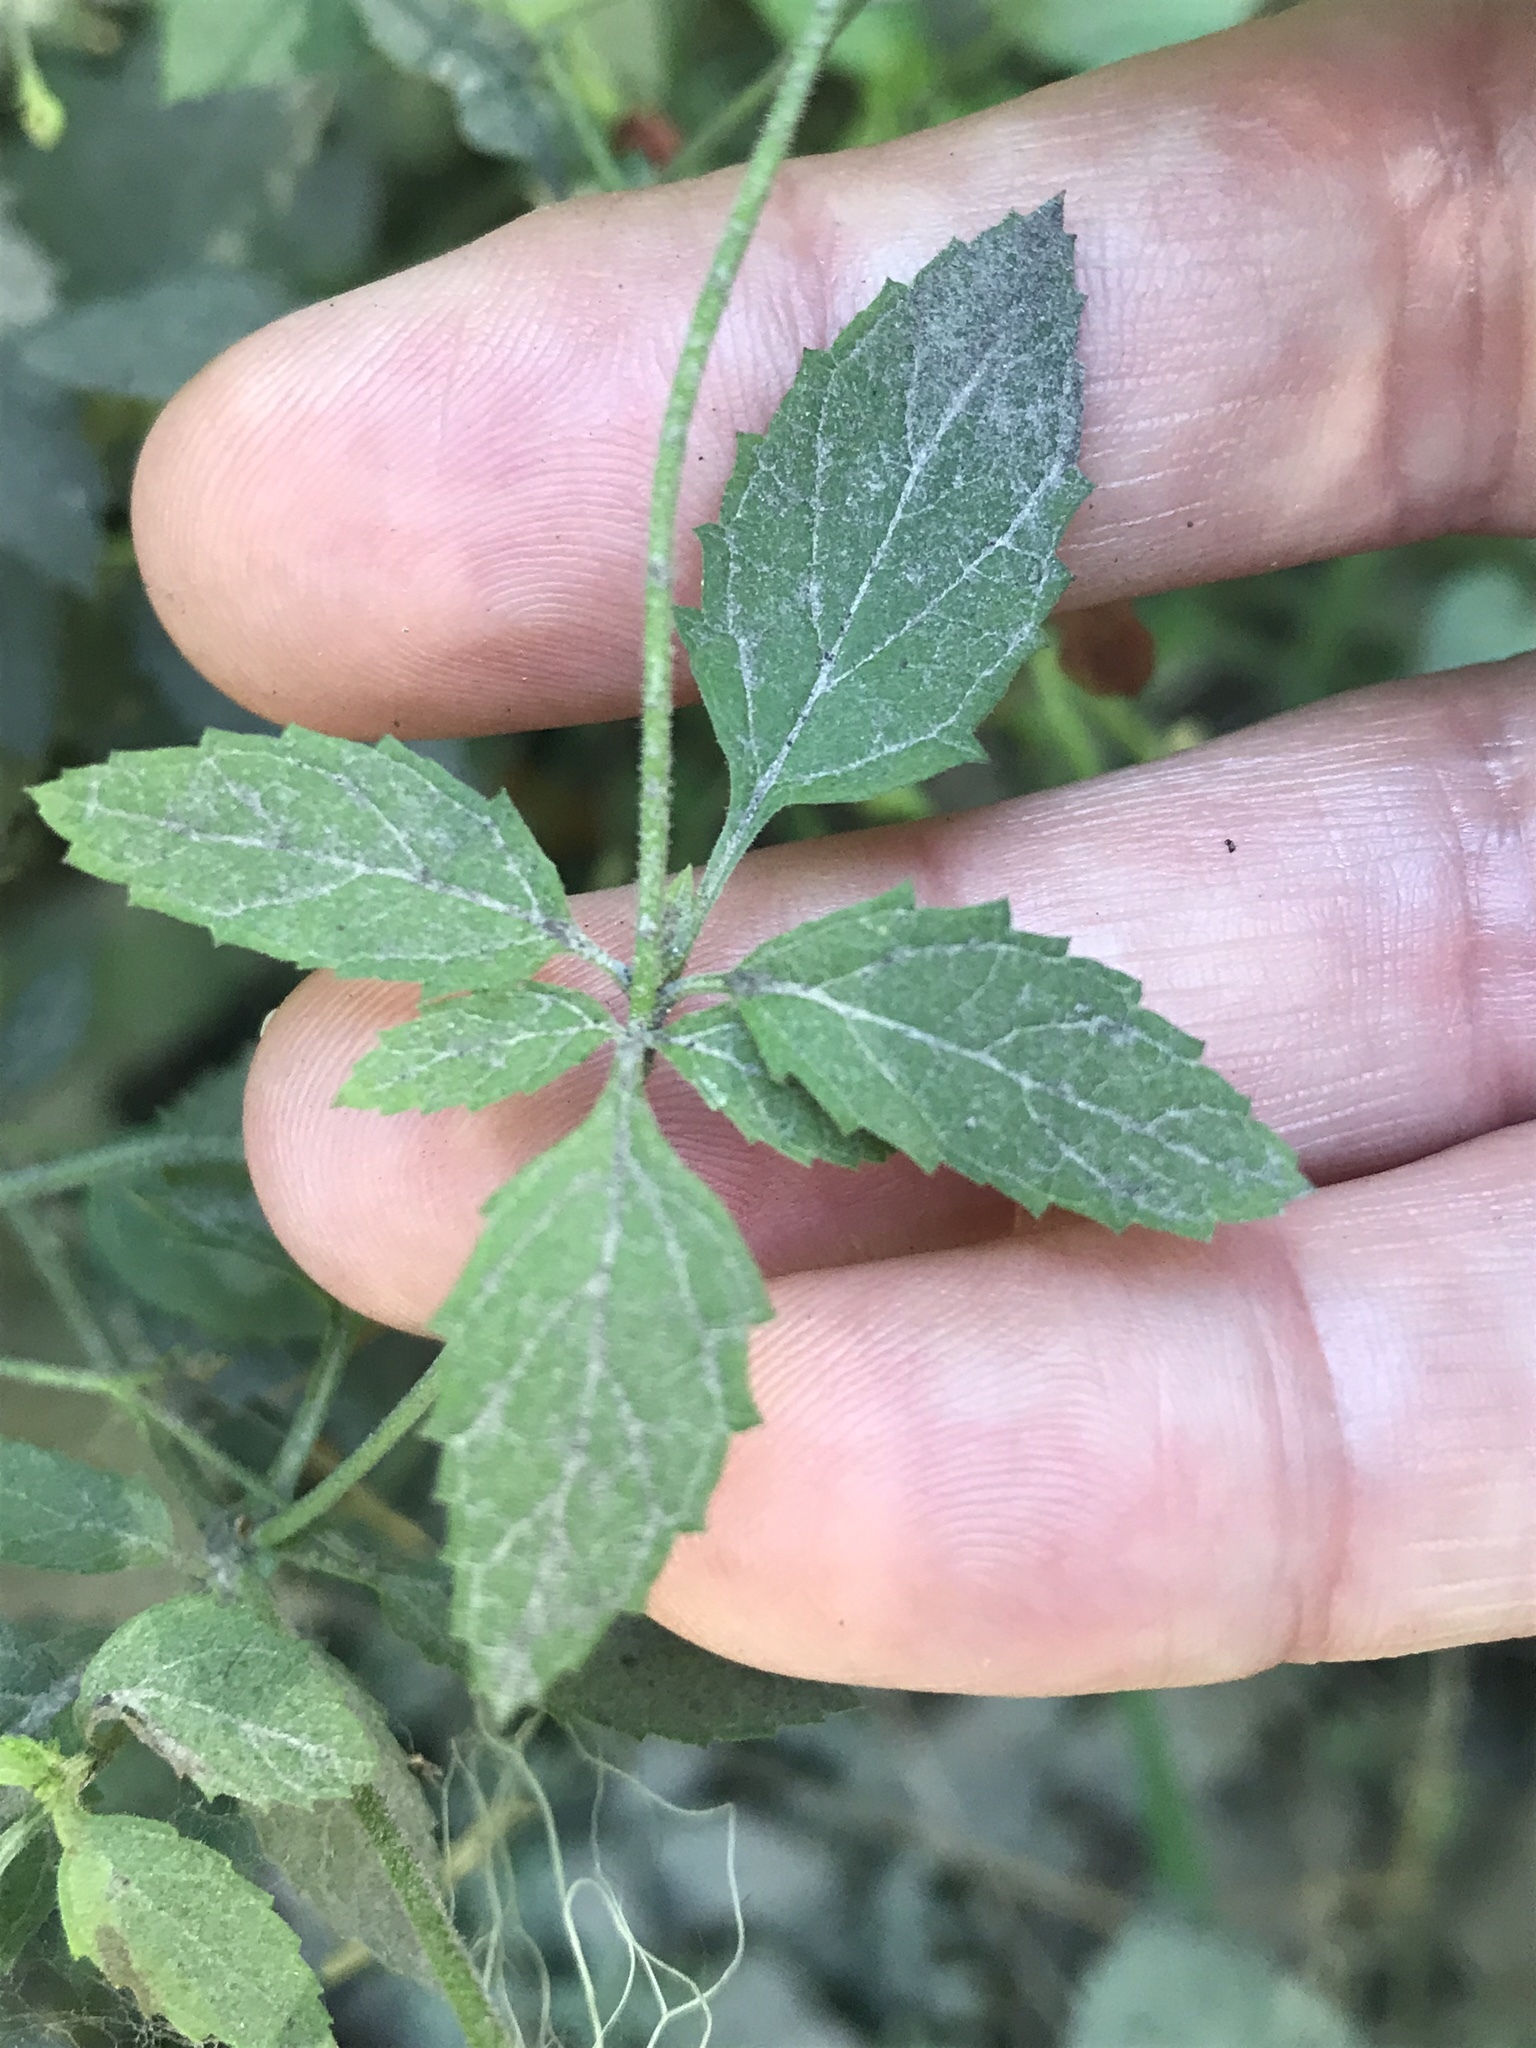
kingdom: Plantae
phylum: Tracheophyta
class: Magnoliopsida
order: Lamiales
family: Scrophulariaceae
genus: Scrophularia
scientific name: Scrophularia californica
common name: California figwort
